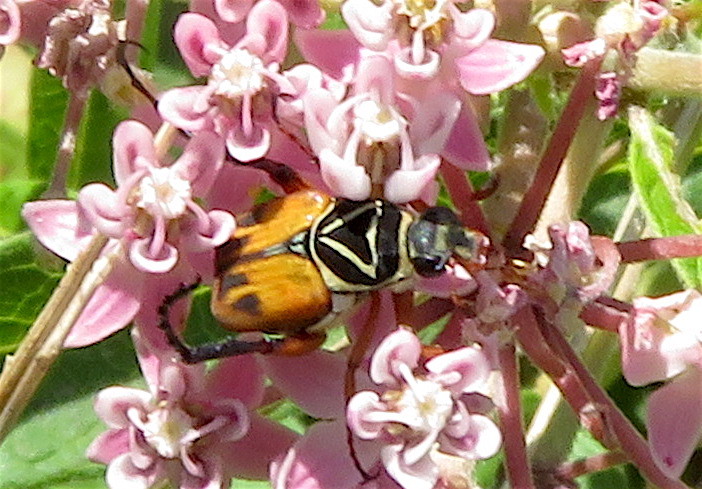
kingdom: Animalia
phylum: Arthropoda
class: Insecta
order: Coleoptera
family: Scarabaeidae
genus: Trigonopeltastes
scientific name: Trigonopeltastes delta
